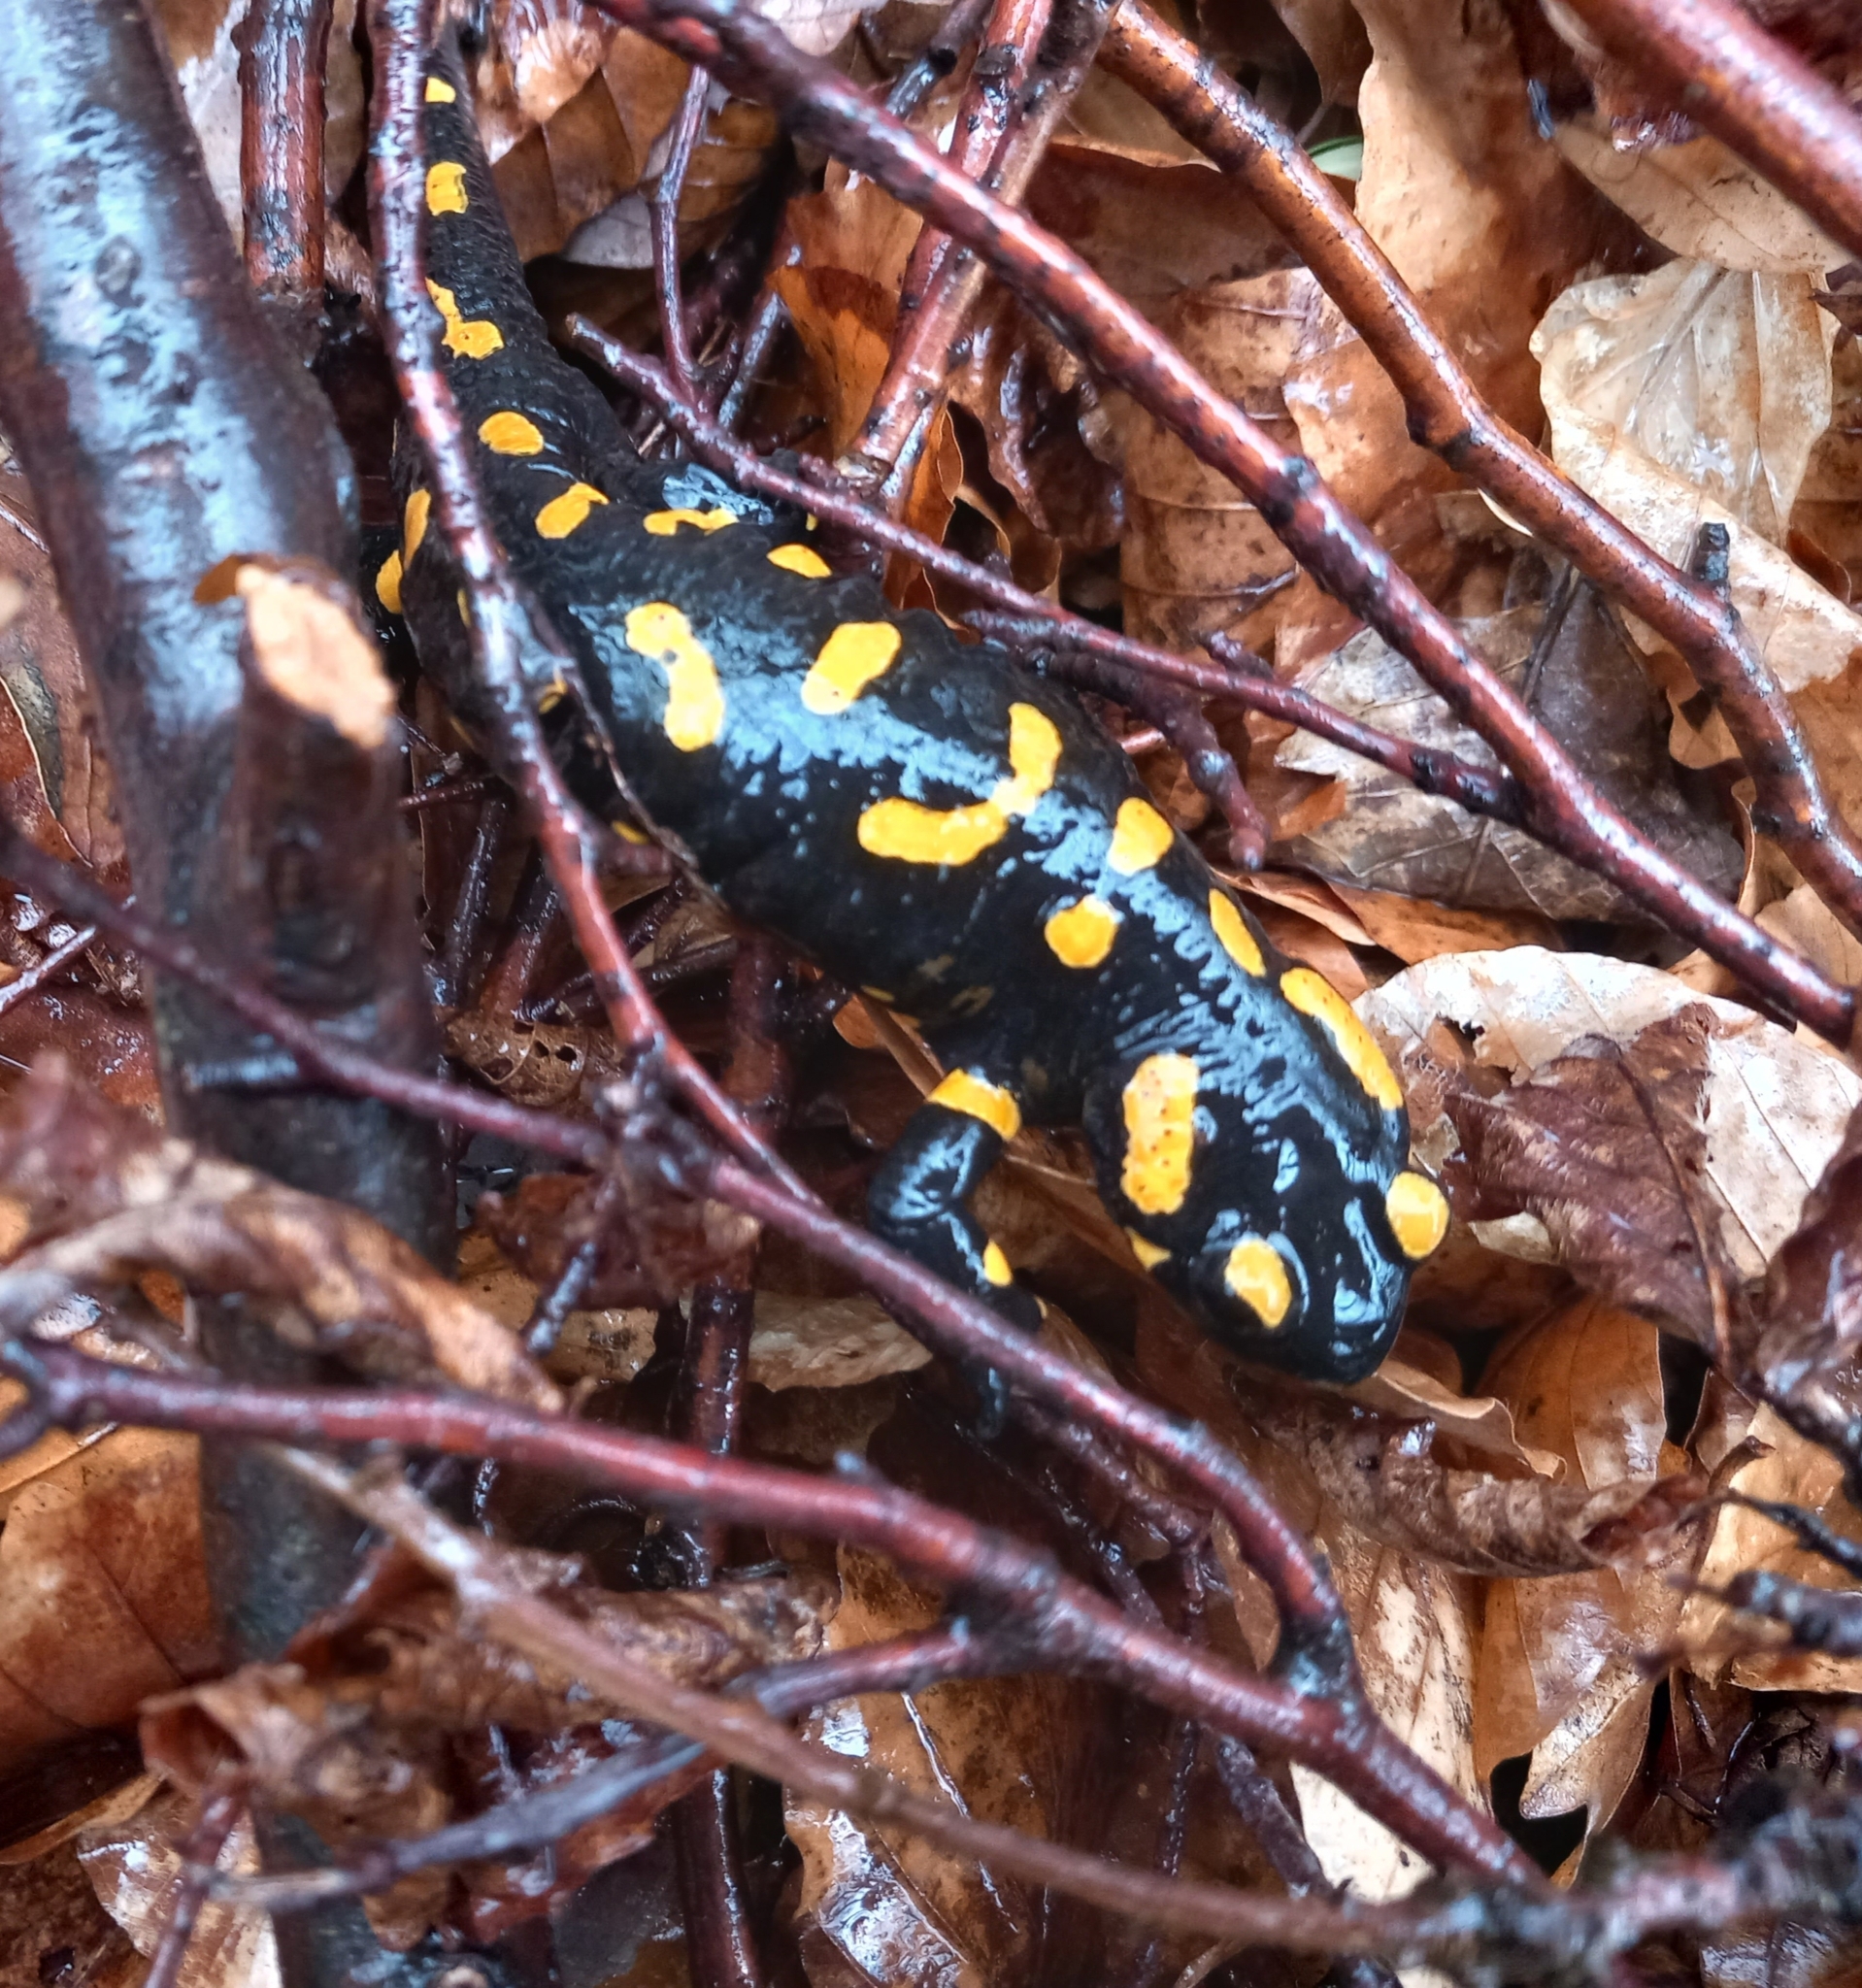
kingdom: Animalia
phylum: Chordata
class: Amphibia
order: Caudata
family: Salamandridae
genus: Salamandra
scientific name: Salamandra salamandra
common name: Fire salamander
